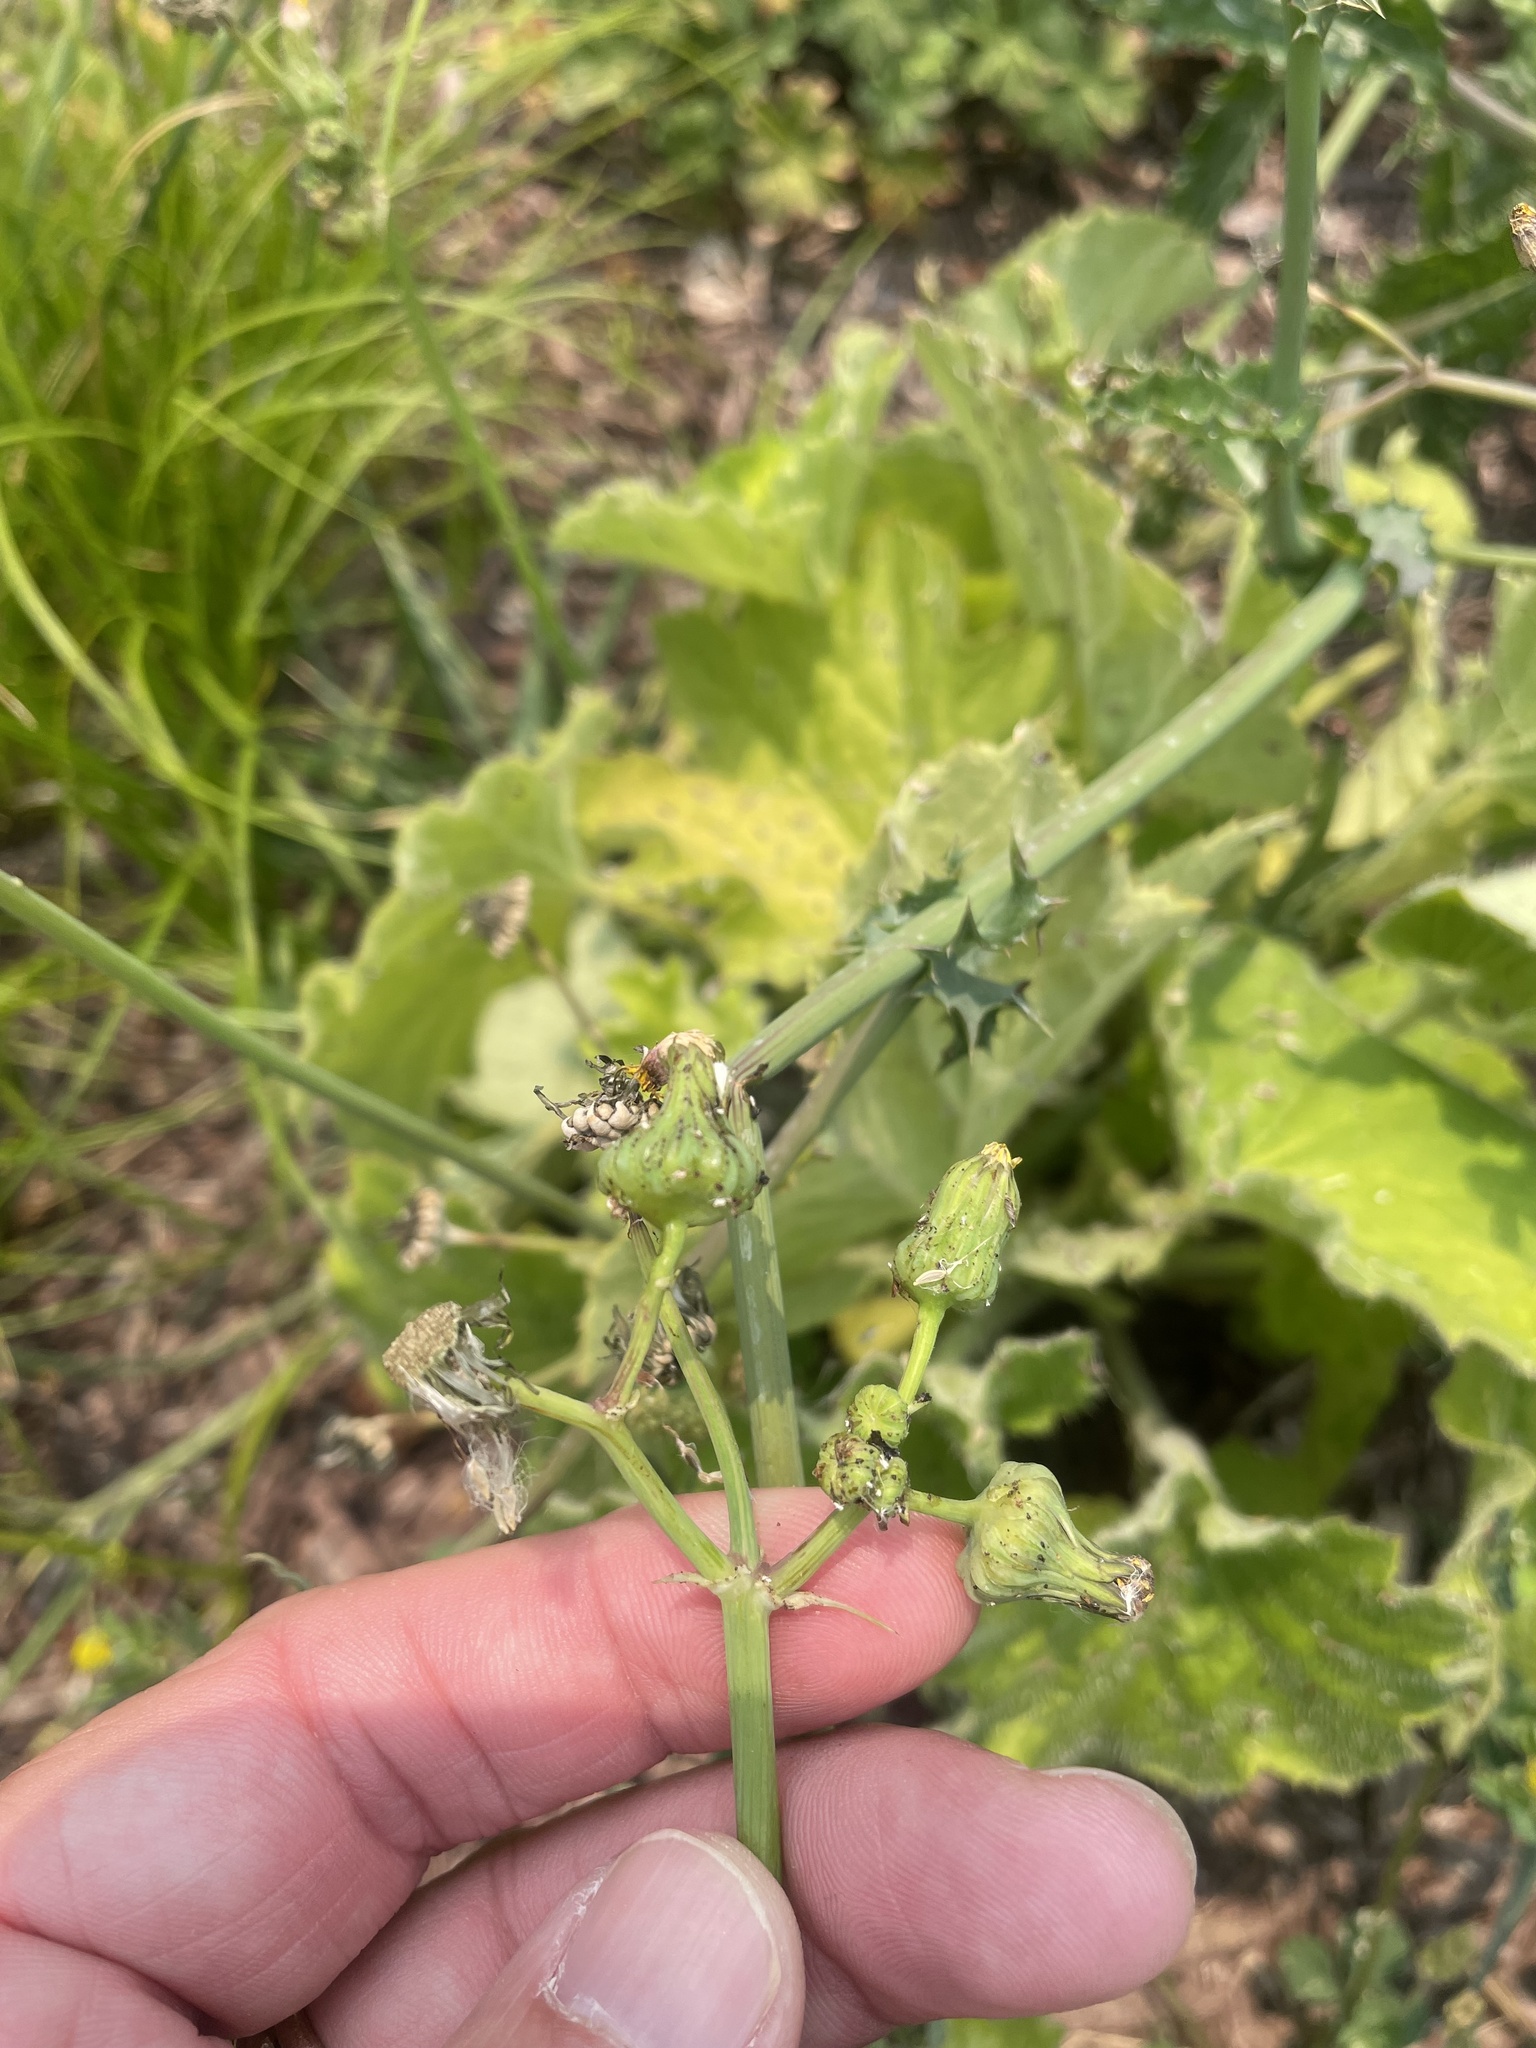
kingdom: Plantae
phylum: Tracheophyta
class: Magnoliopsida
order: Asterales
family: Asteraceae
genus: Sonchus
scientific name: Sonchus asper
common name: Prickly sow-thistle
